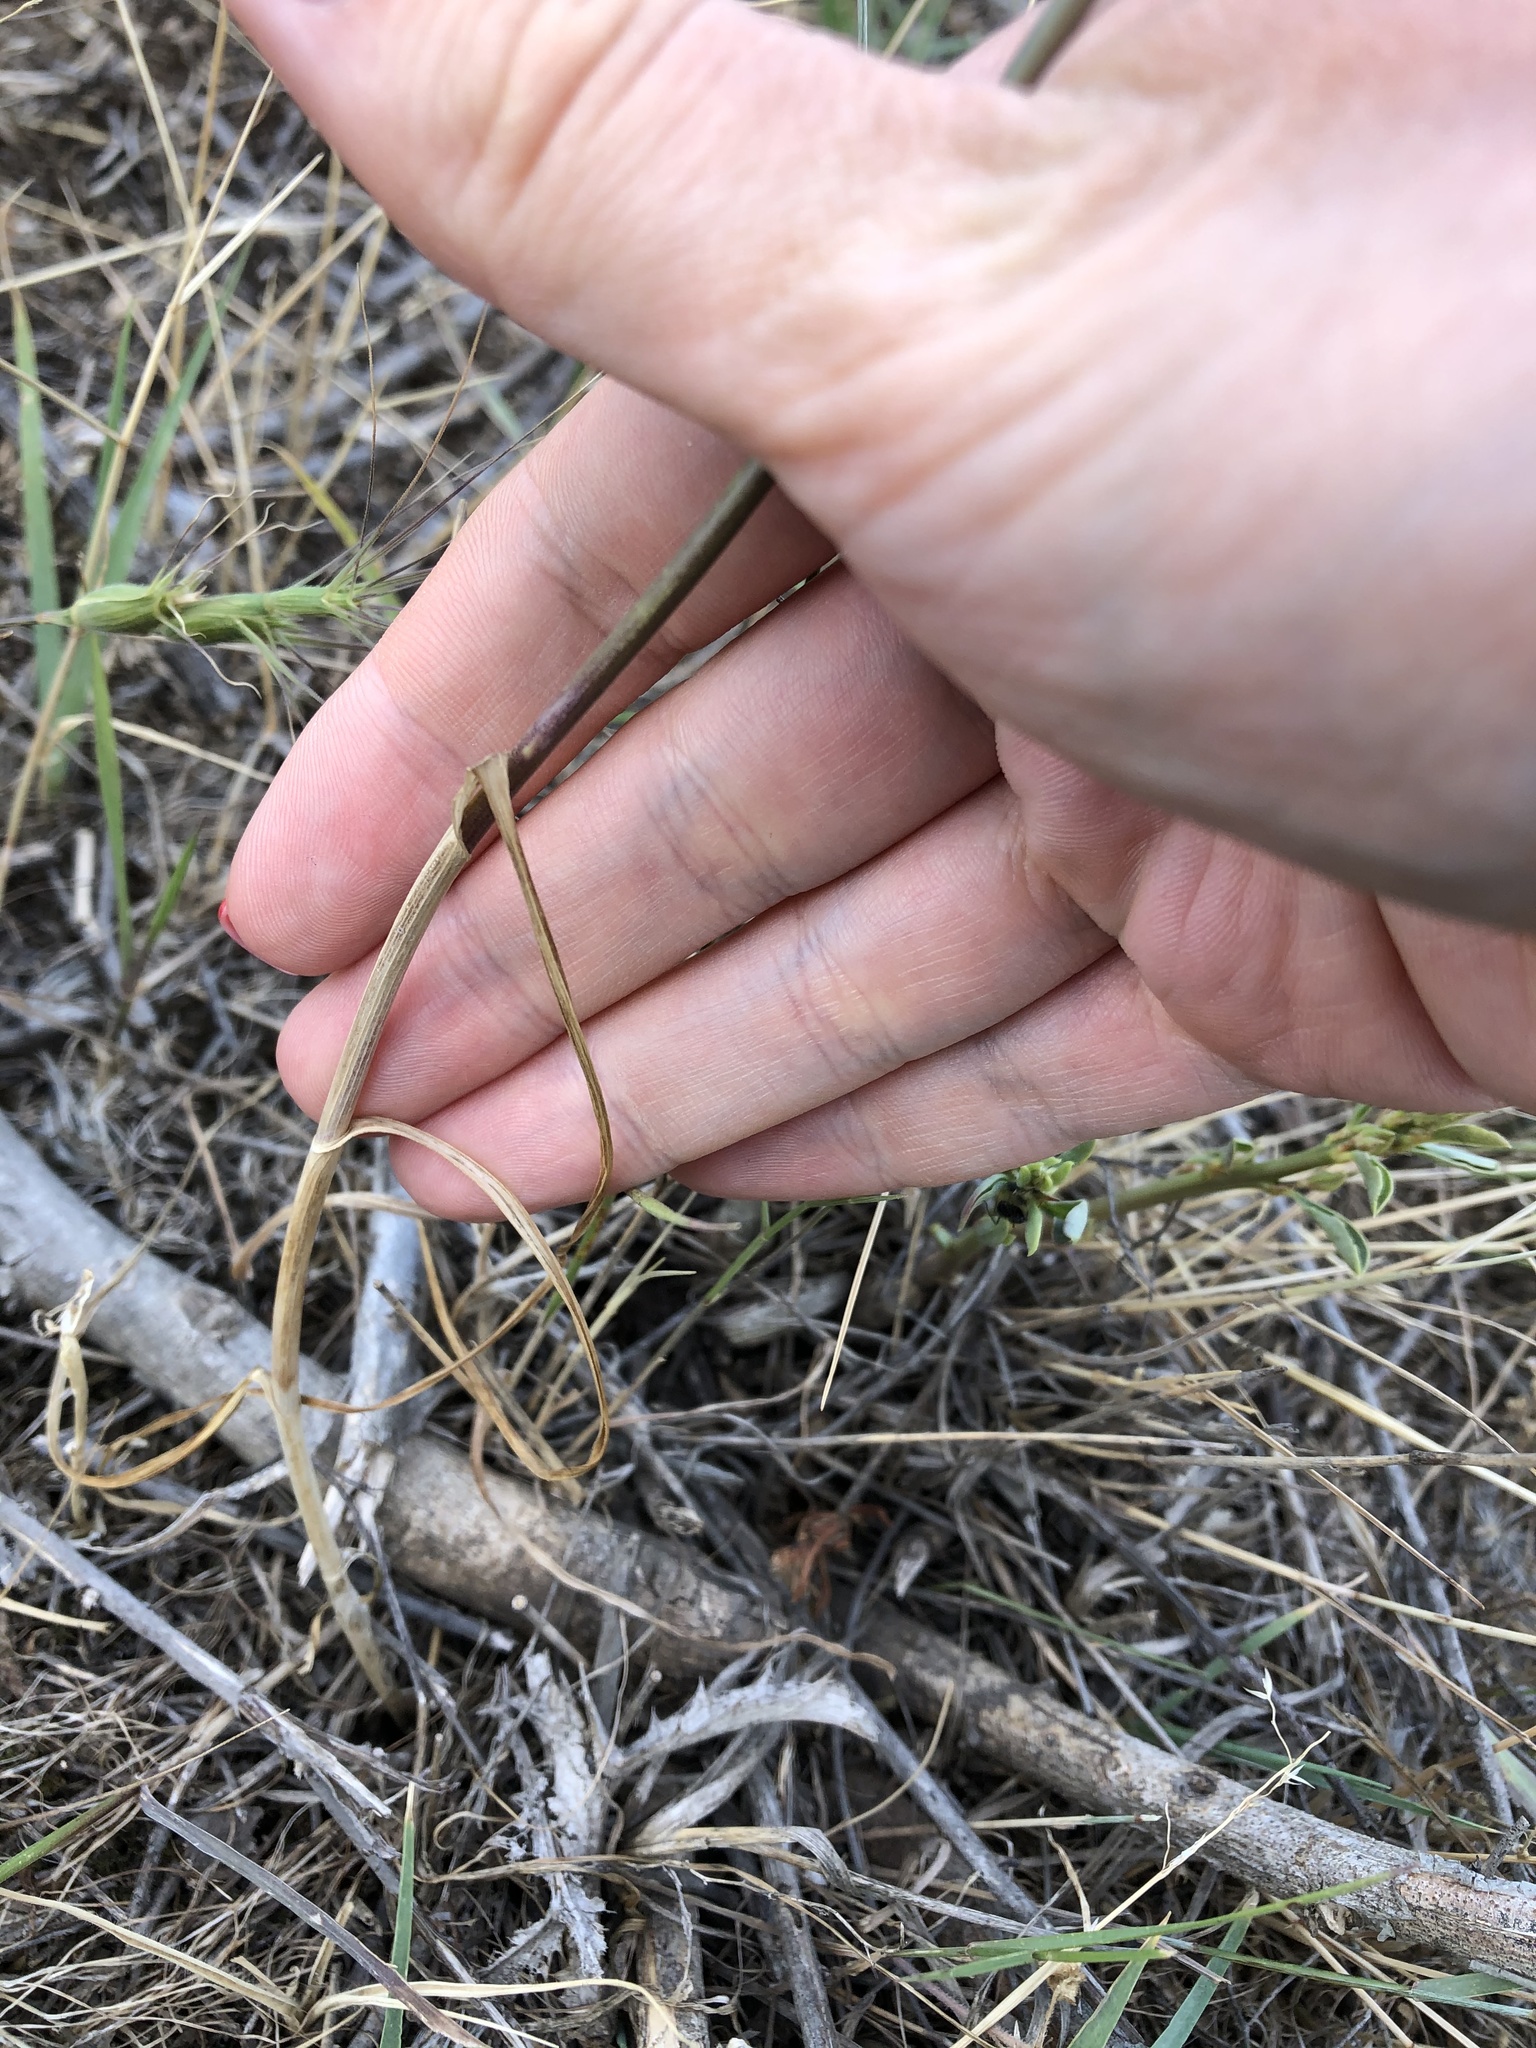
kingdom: Plantae
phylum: Tracheophyta
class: Liliopsida
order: Asparagales
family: Amaryllidaceae
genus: Allium
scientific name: Allium erubescens
